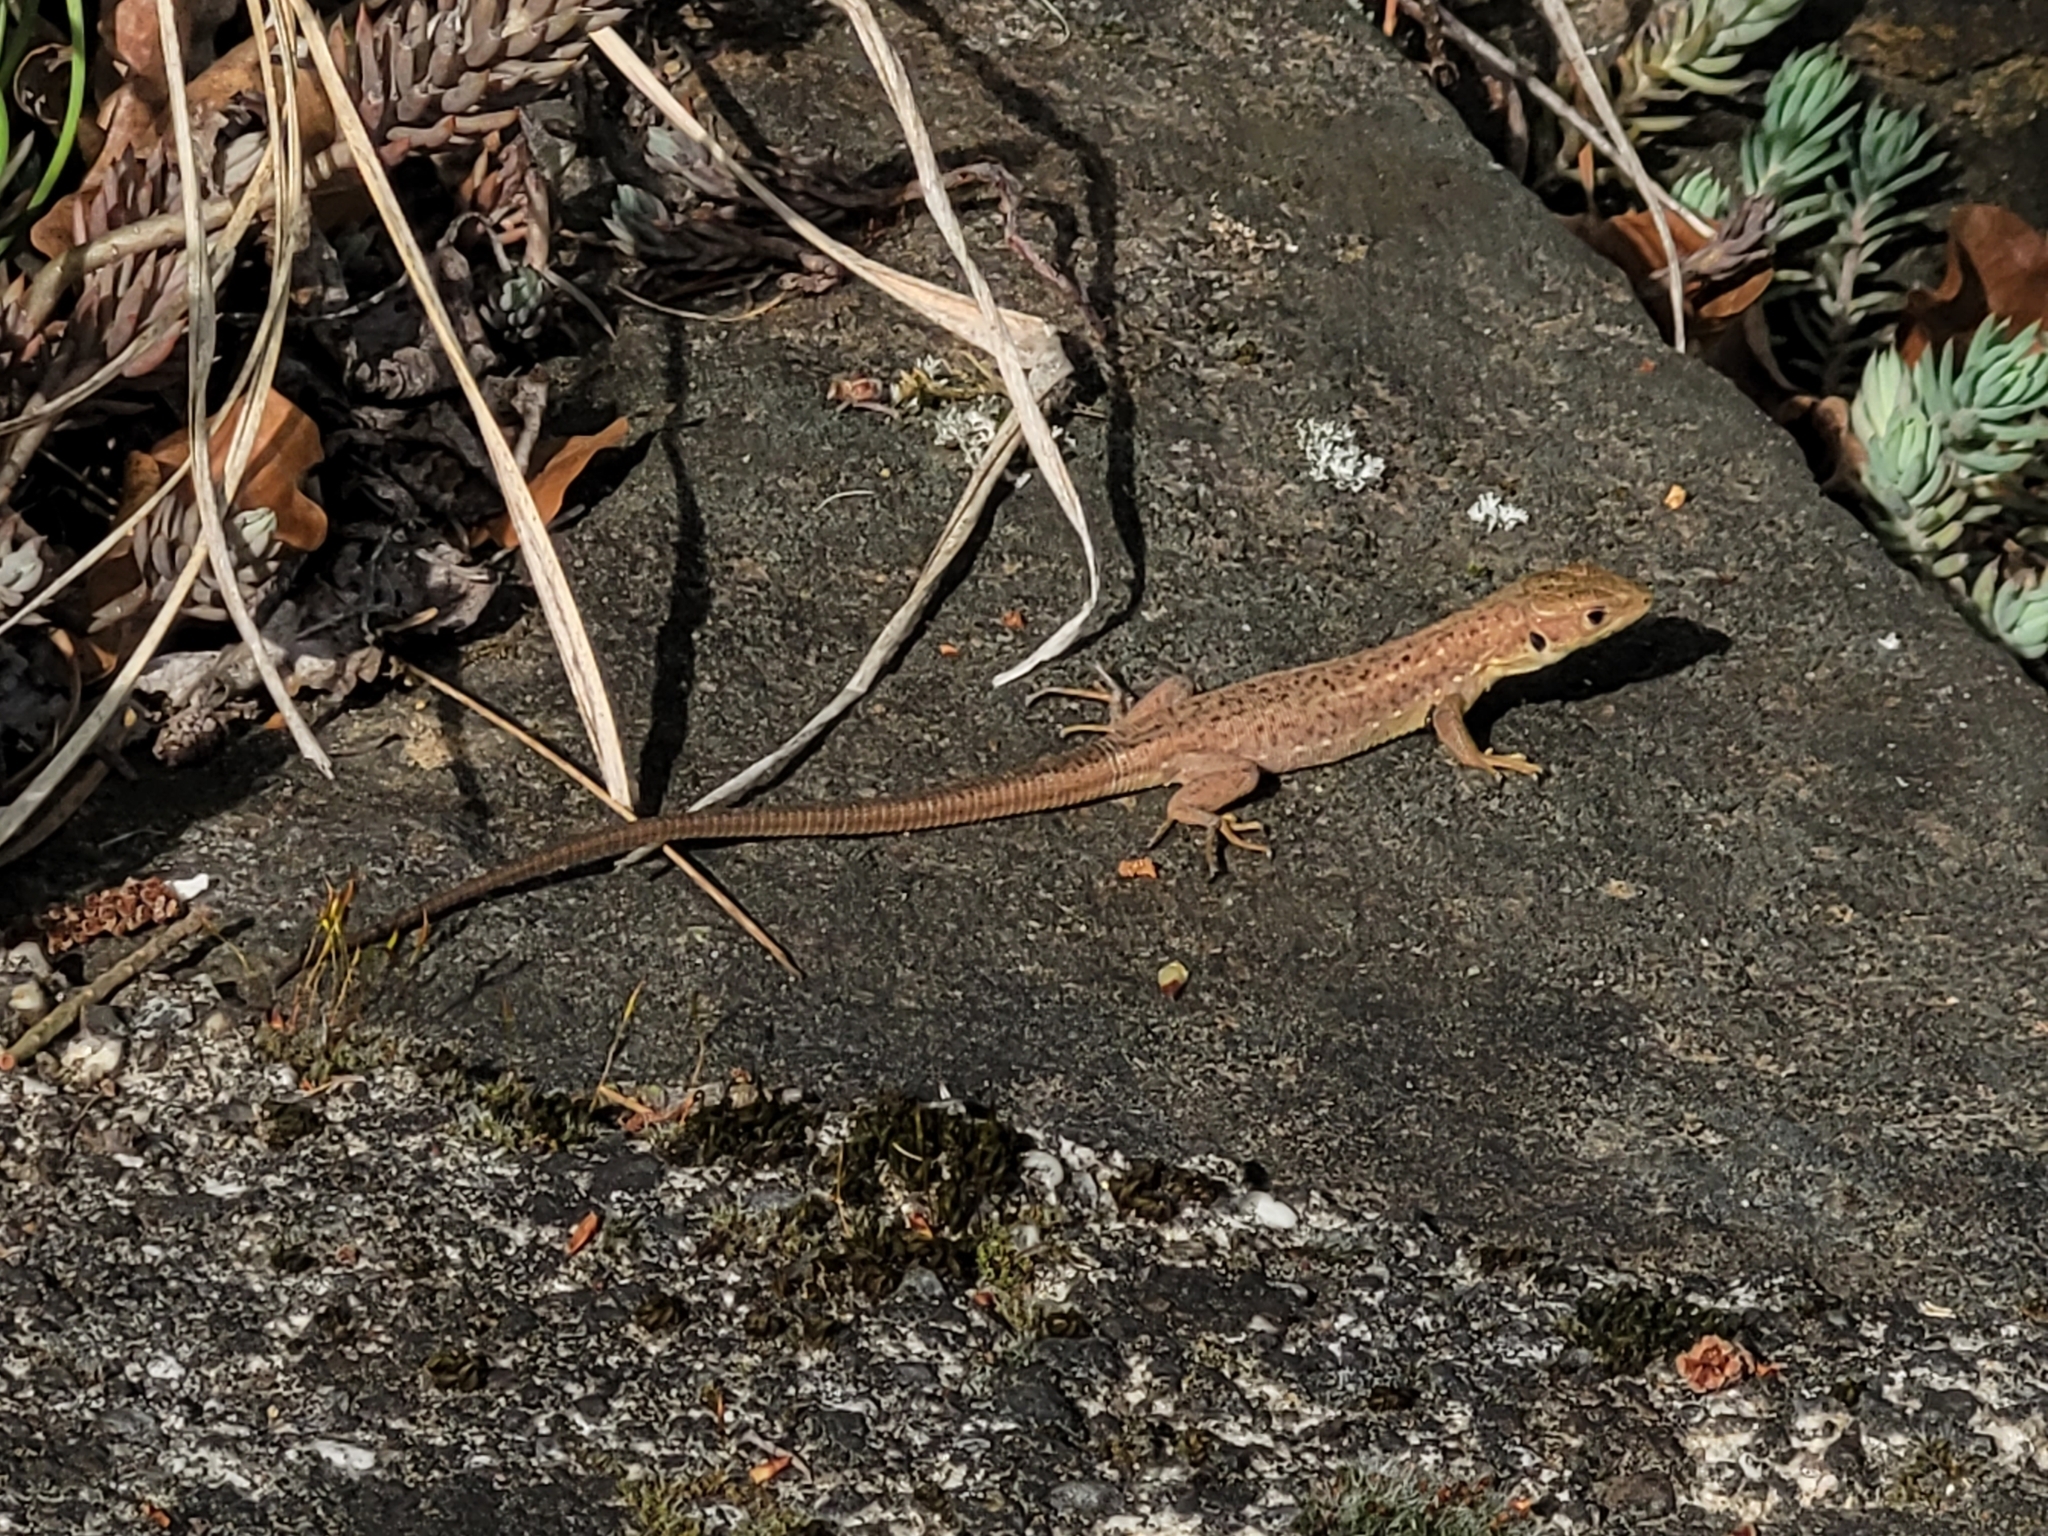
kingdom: Animalia
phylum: Chordata
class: Squamata
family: Lacertidae
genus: Lacerta
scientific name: Lacerta viridis
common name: European green lizard
